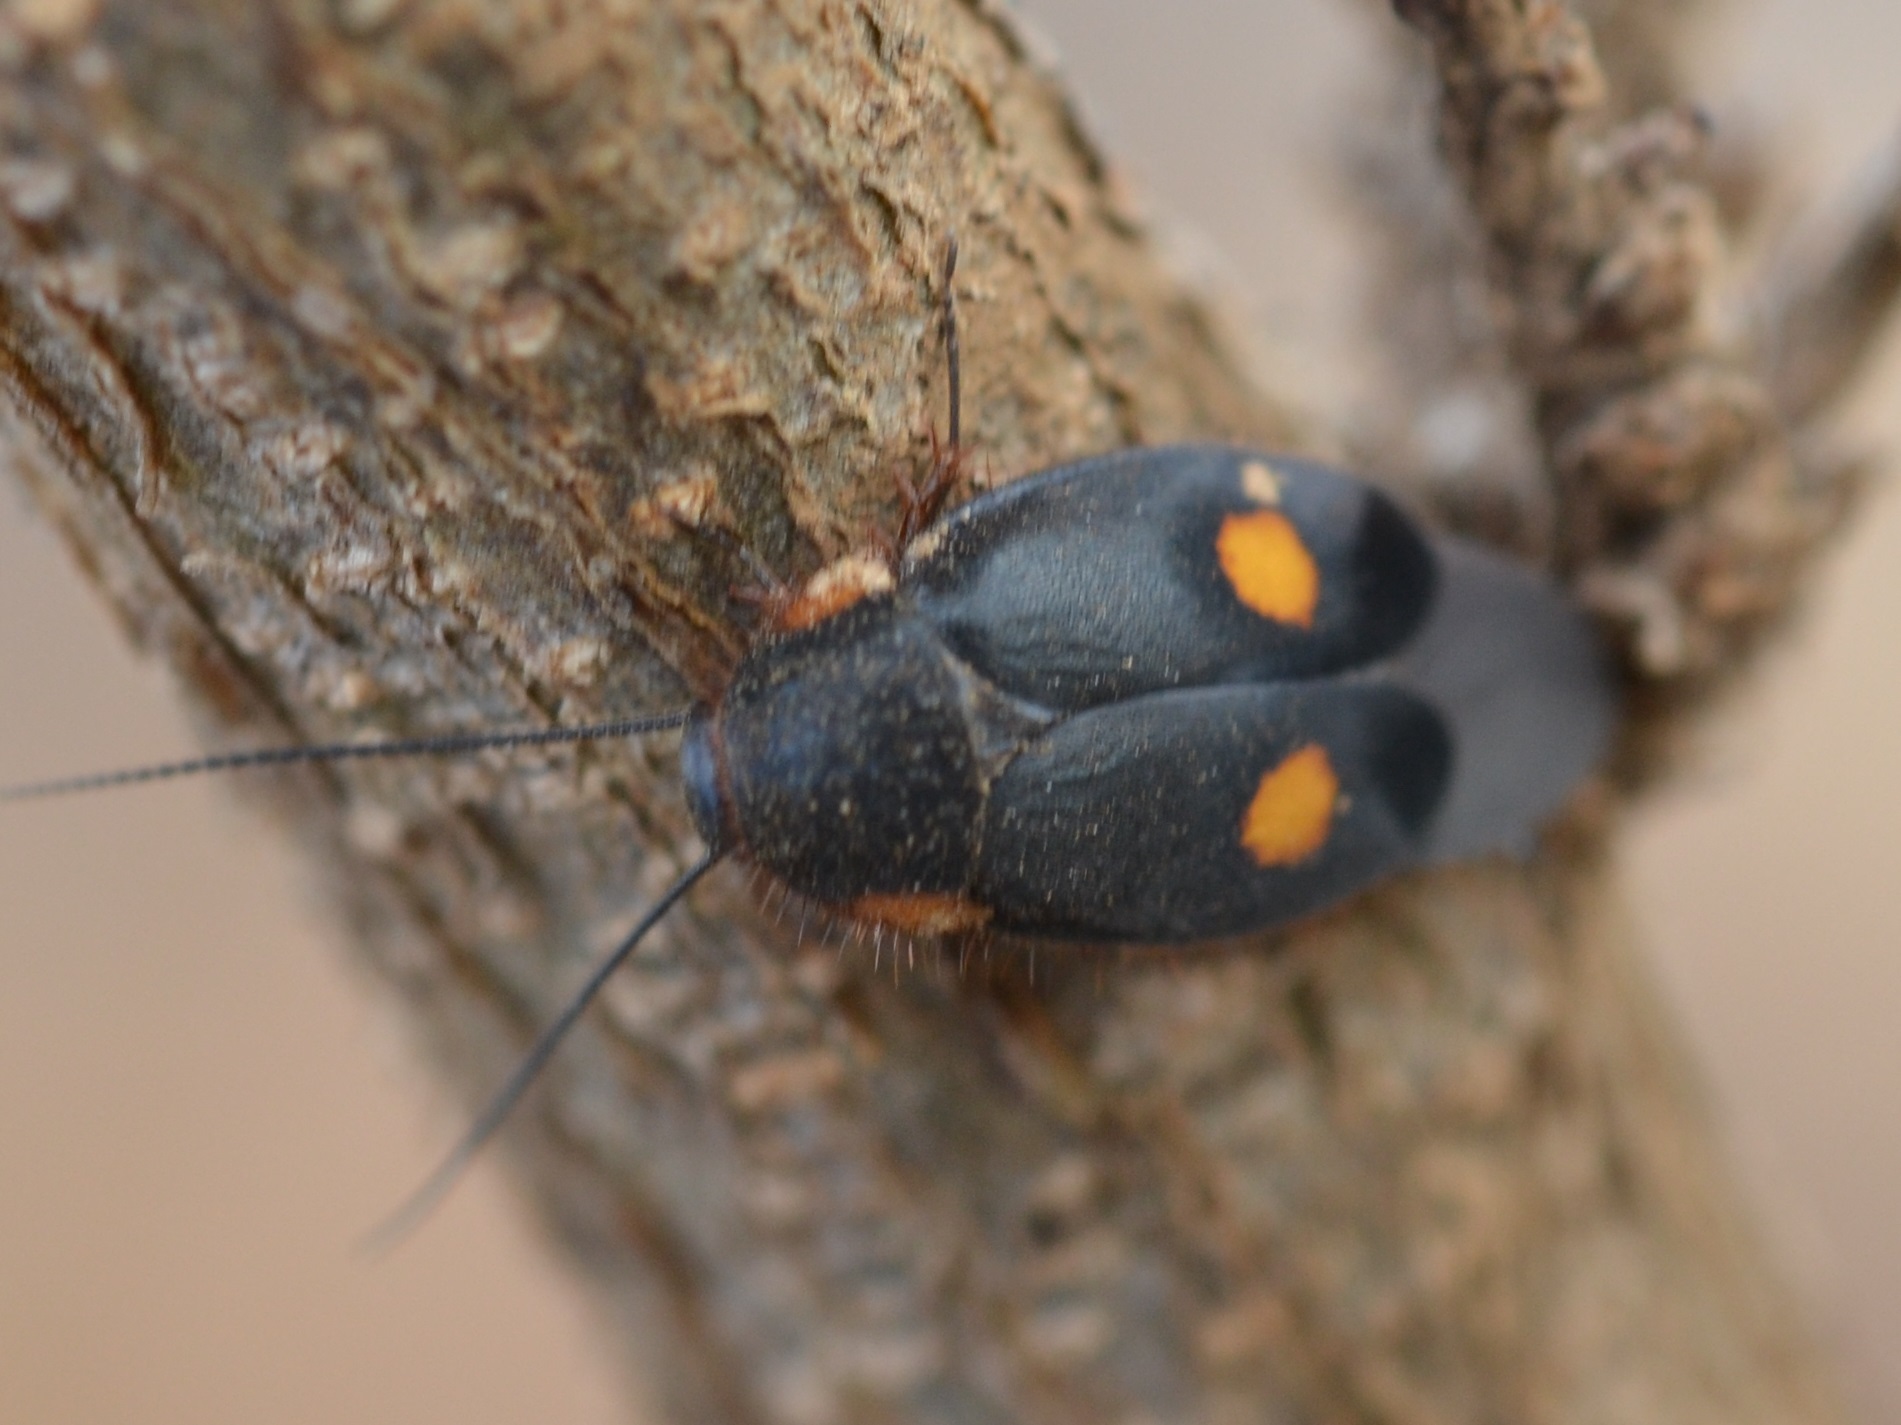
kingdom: Animalia
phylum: Arthropoda
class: Insecta
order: Blattodea
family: Corydiidae
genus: Euthyrrhapha
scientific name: Euthyrrhapha pacifica
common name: Pacific cockroach
